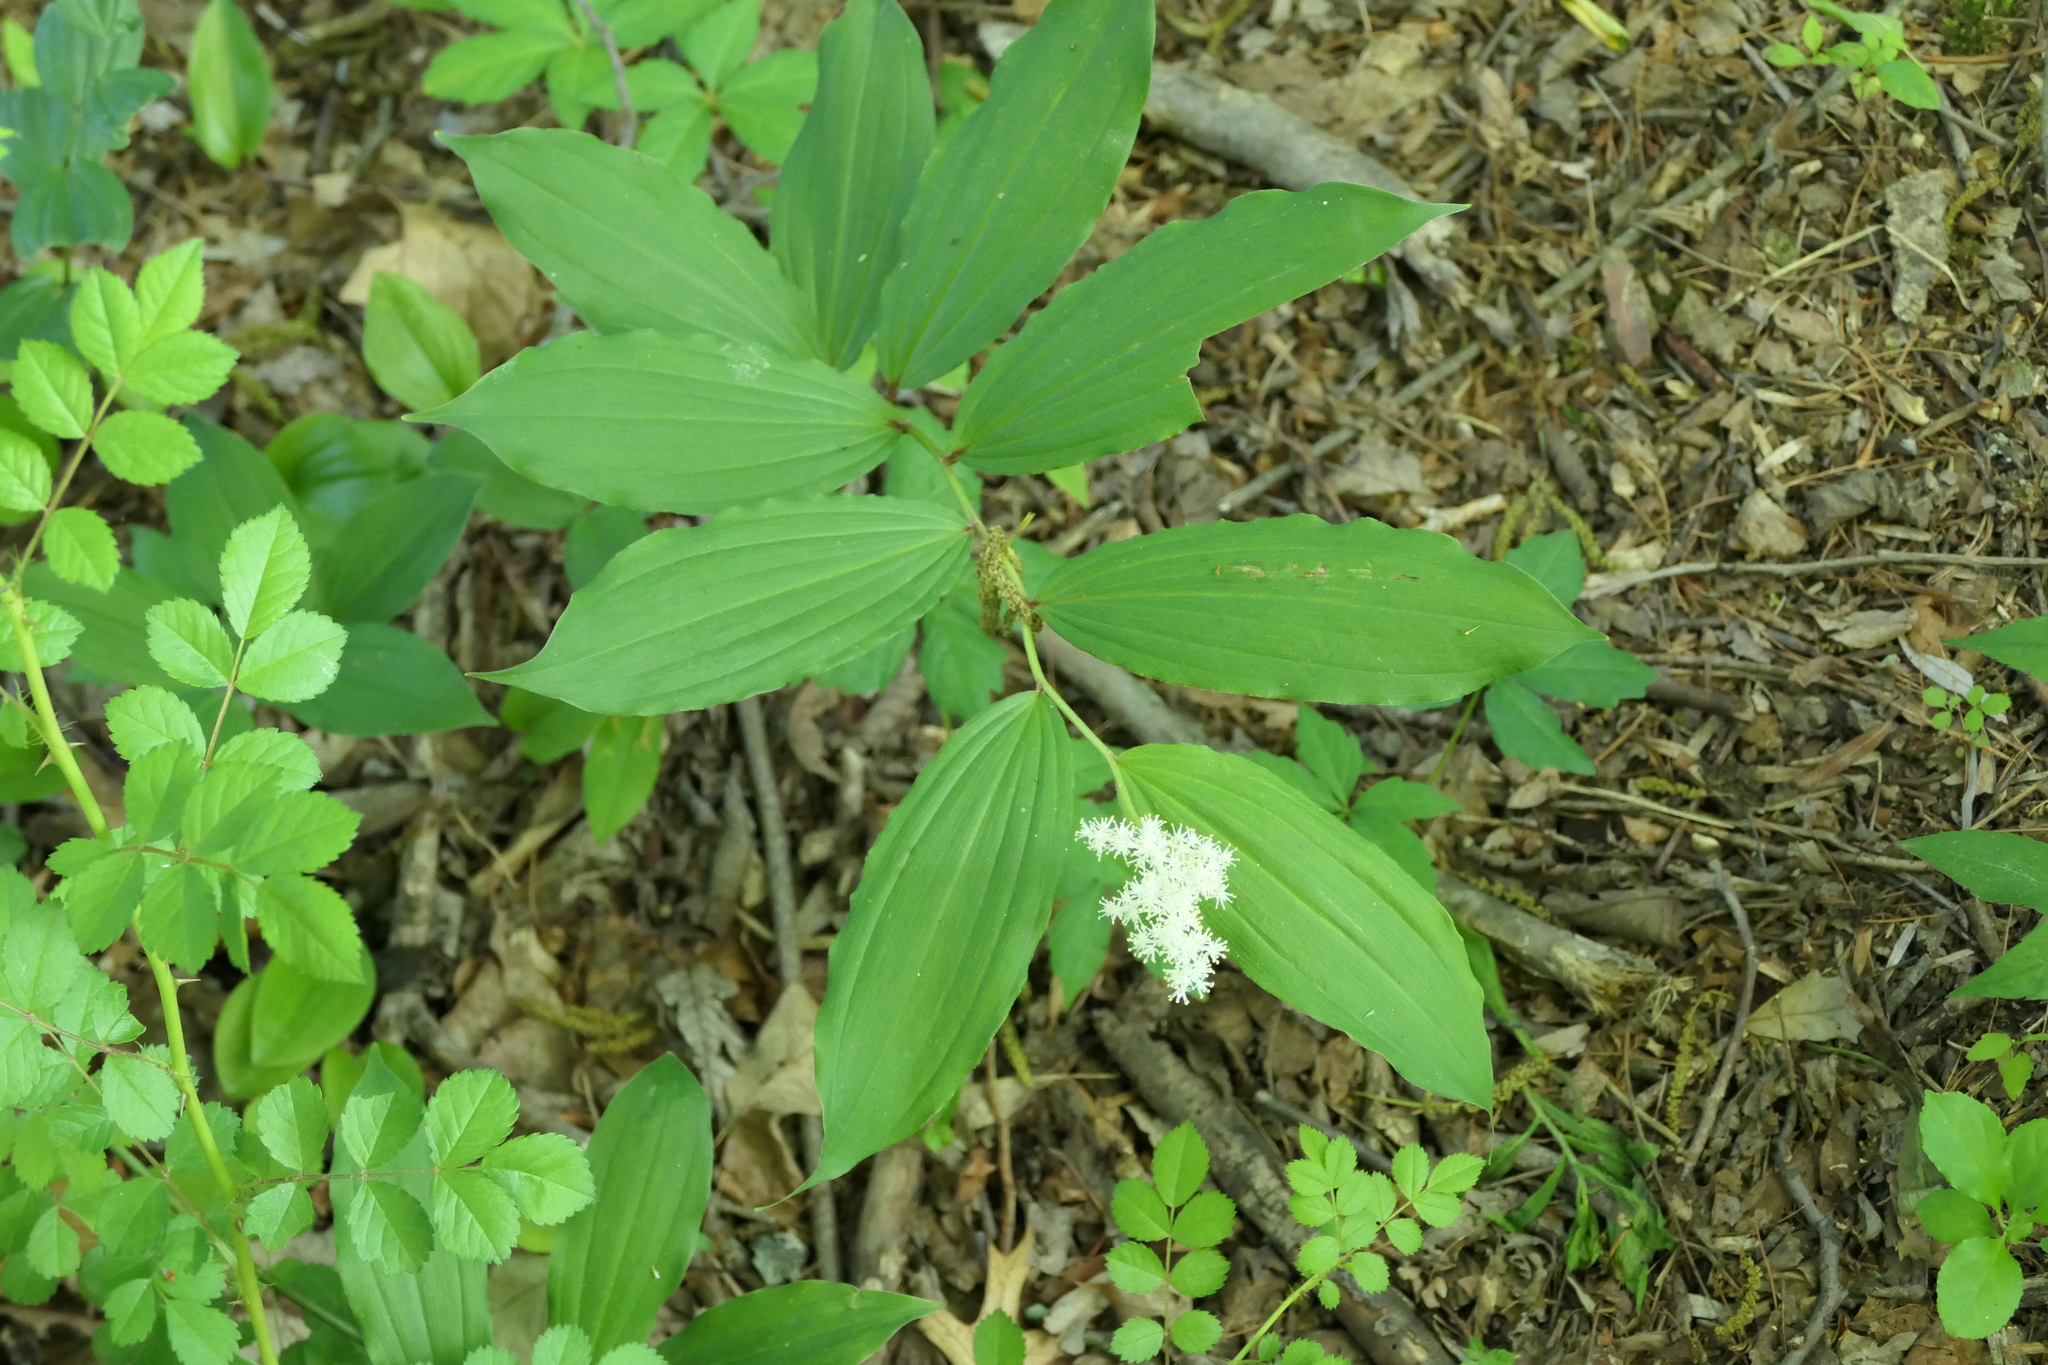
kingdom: Plantae
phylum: Tracheophyta
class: Liliopsida
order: Asparagales
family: Asparagaceae
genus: Maianthemum
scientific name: Maianthemum racemosum
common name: False spikenard
